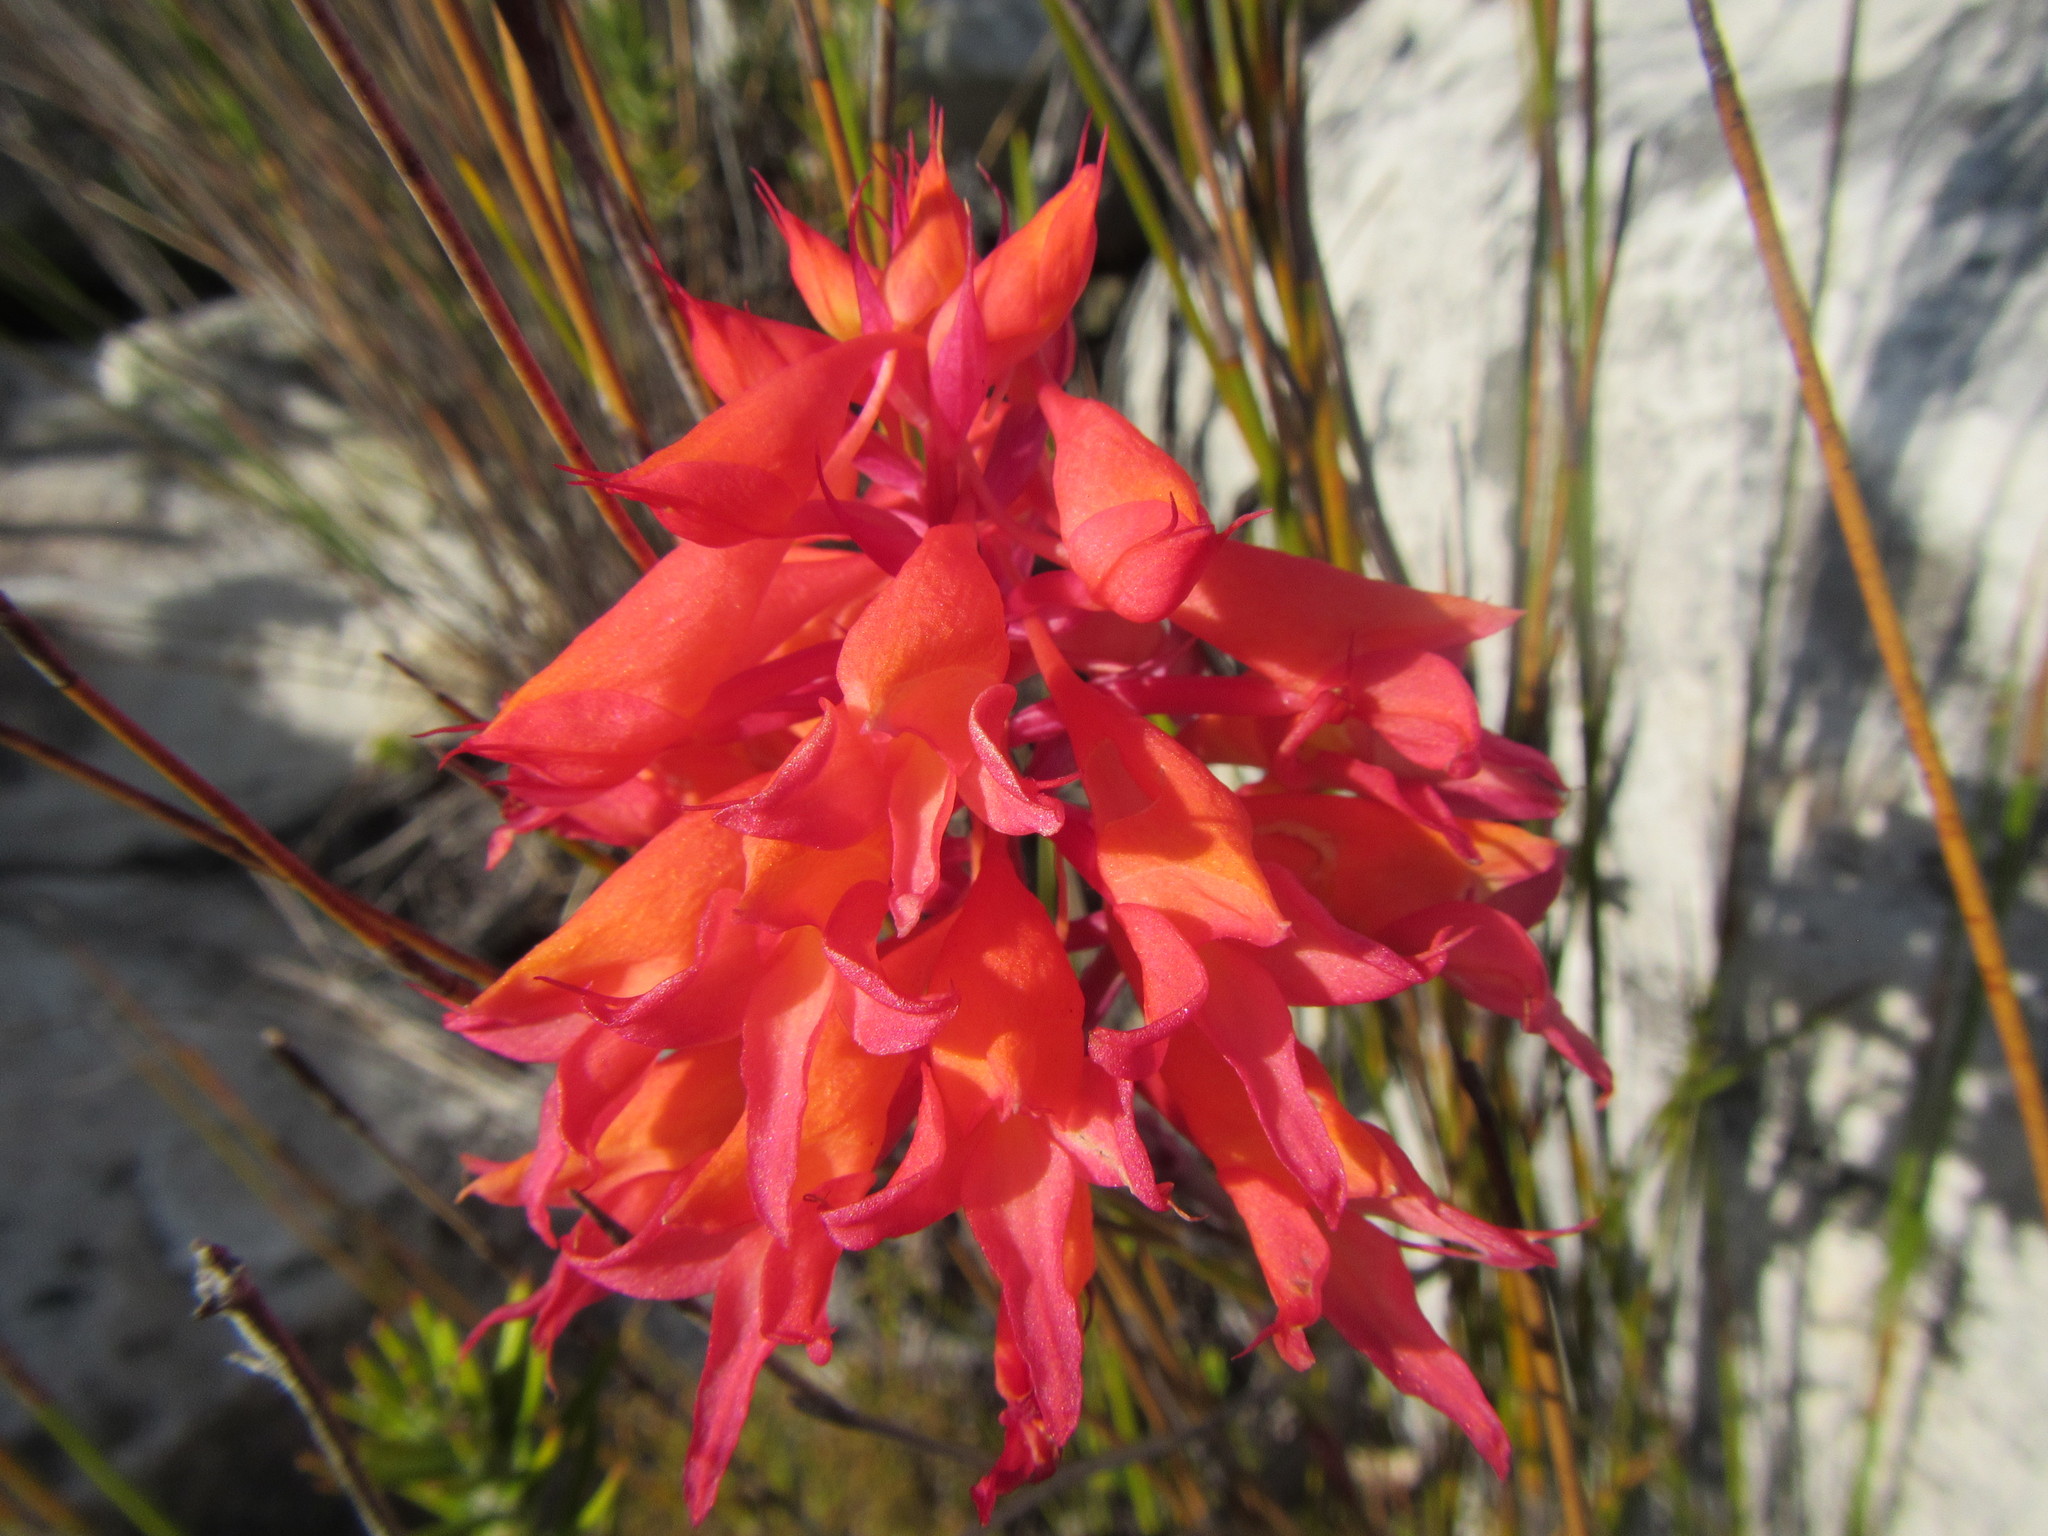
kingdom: Plantae
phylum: Tracheophyta
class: Liliopsida
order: Asparagales
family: Orchidaceae
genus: Disa
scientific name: Disa ferruginea
